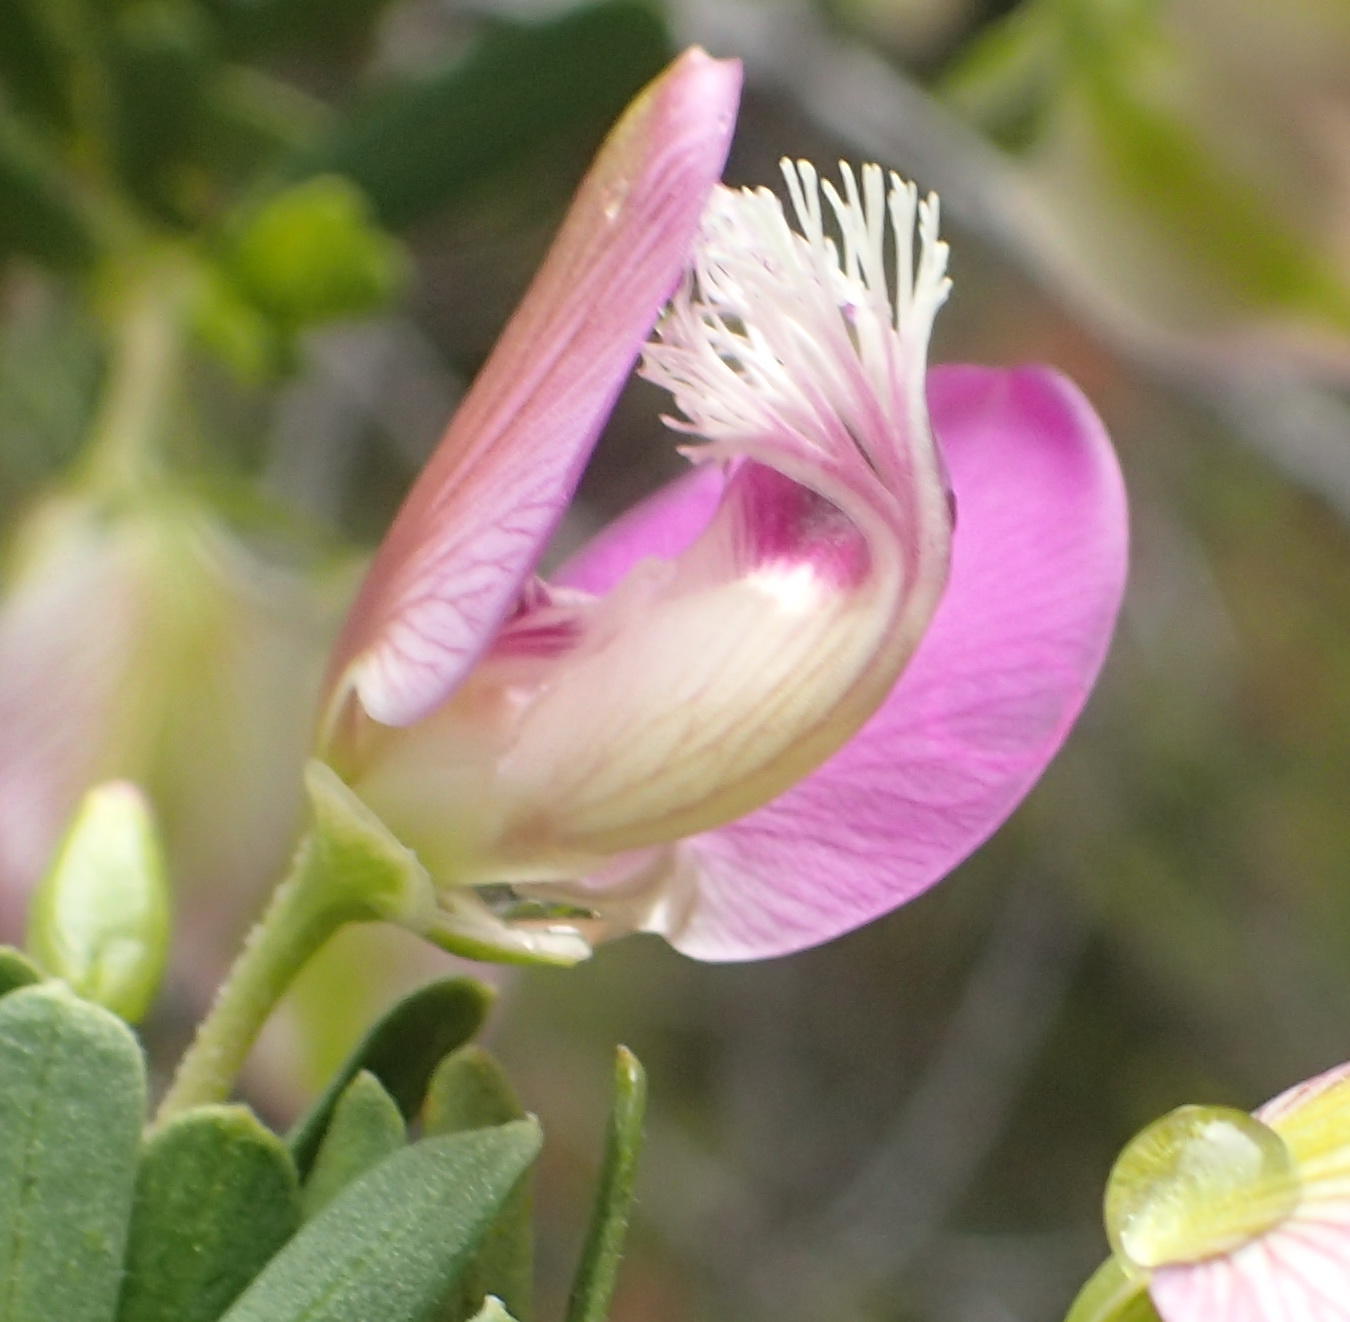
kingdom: Plantae
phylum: Tracheophyta
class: Magnoliopsida
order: Fabales
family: Polygalaceae
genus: Polygala
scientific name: Polygala myrtifolia
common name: Myrtle-leaf milkwort
